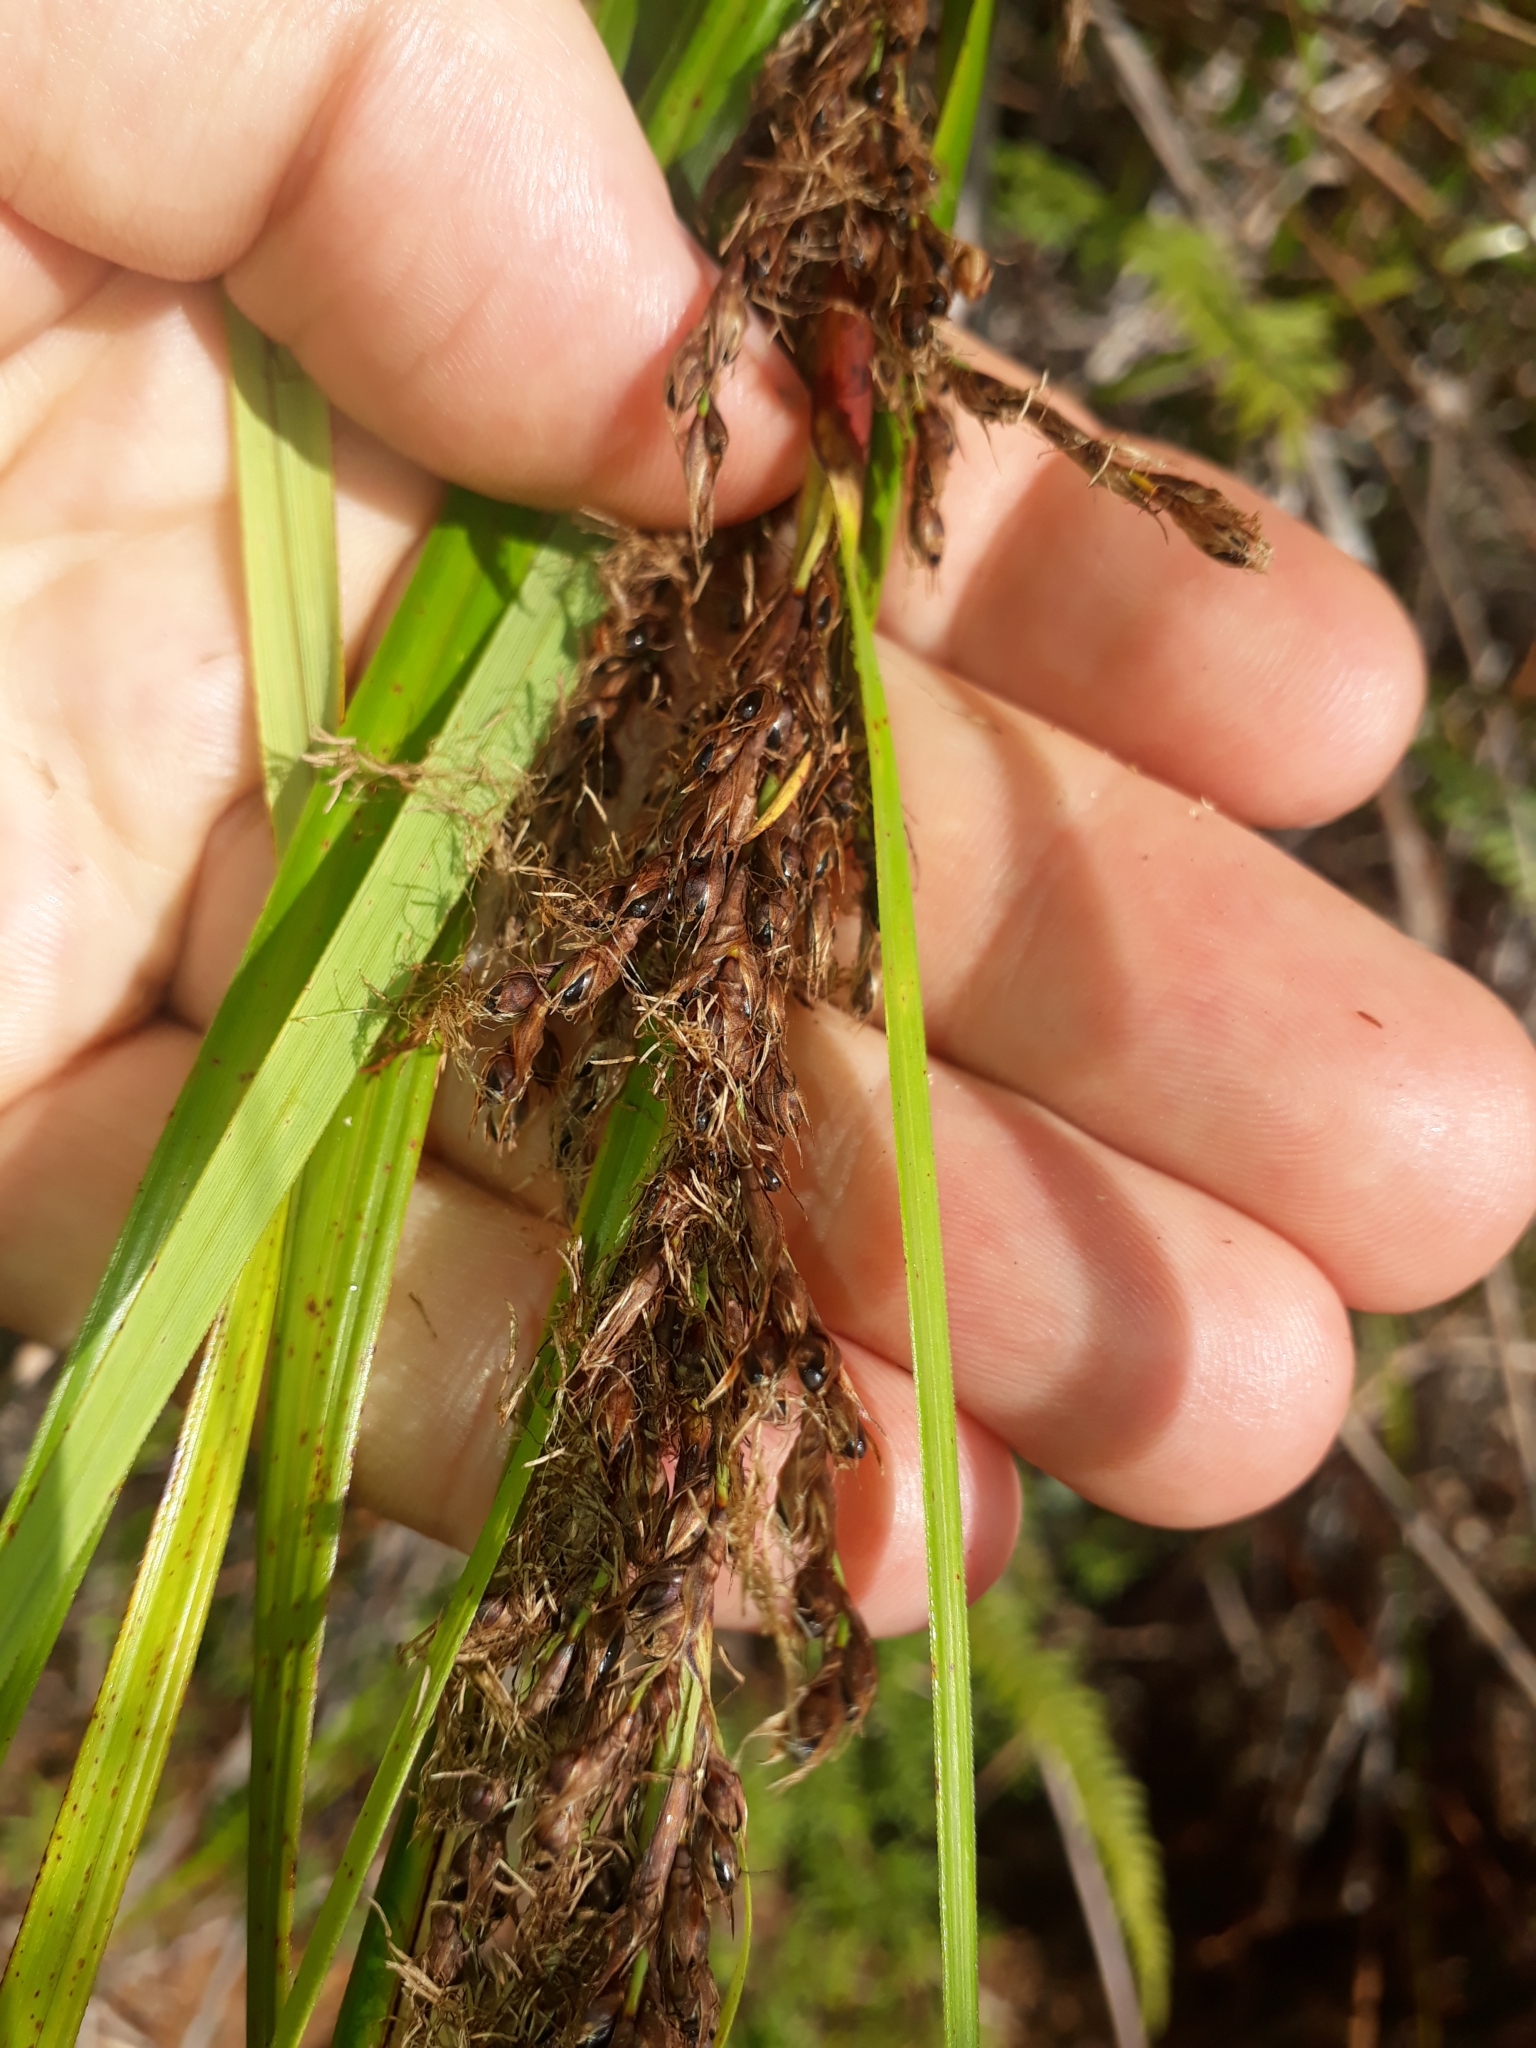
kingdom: Plantae
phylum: Tracheophyta
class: Liliopsida
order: Poales
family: Cyperaceae
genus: Gahnia
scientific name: Gahnia lacera
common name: Sawsedge
